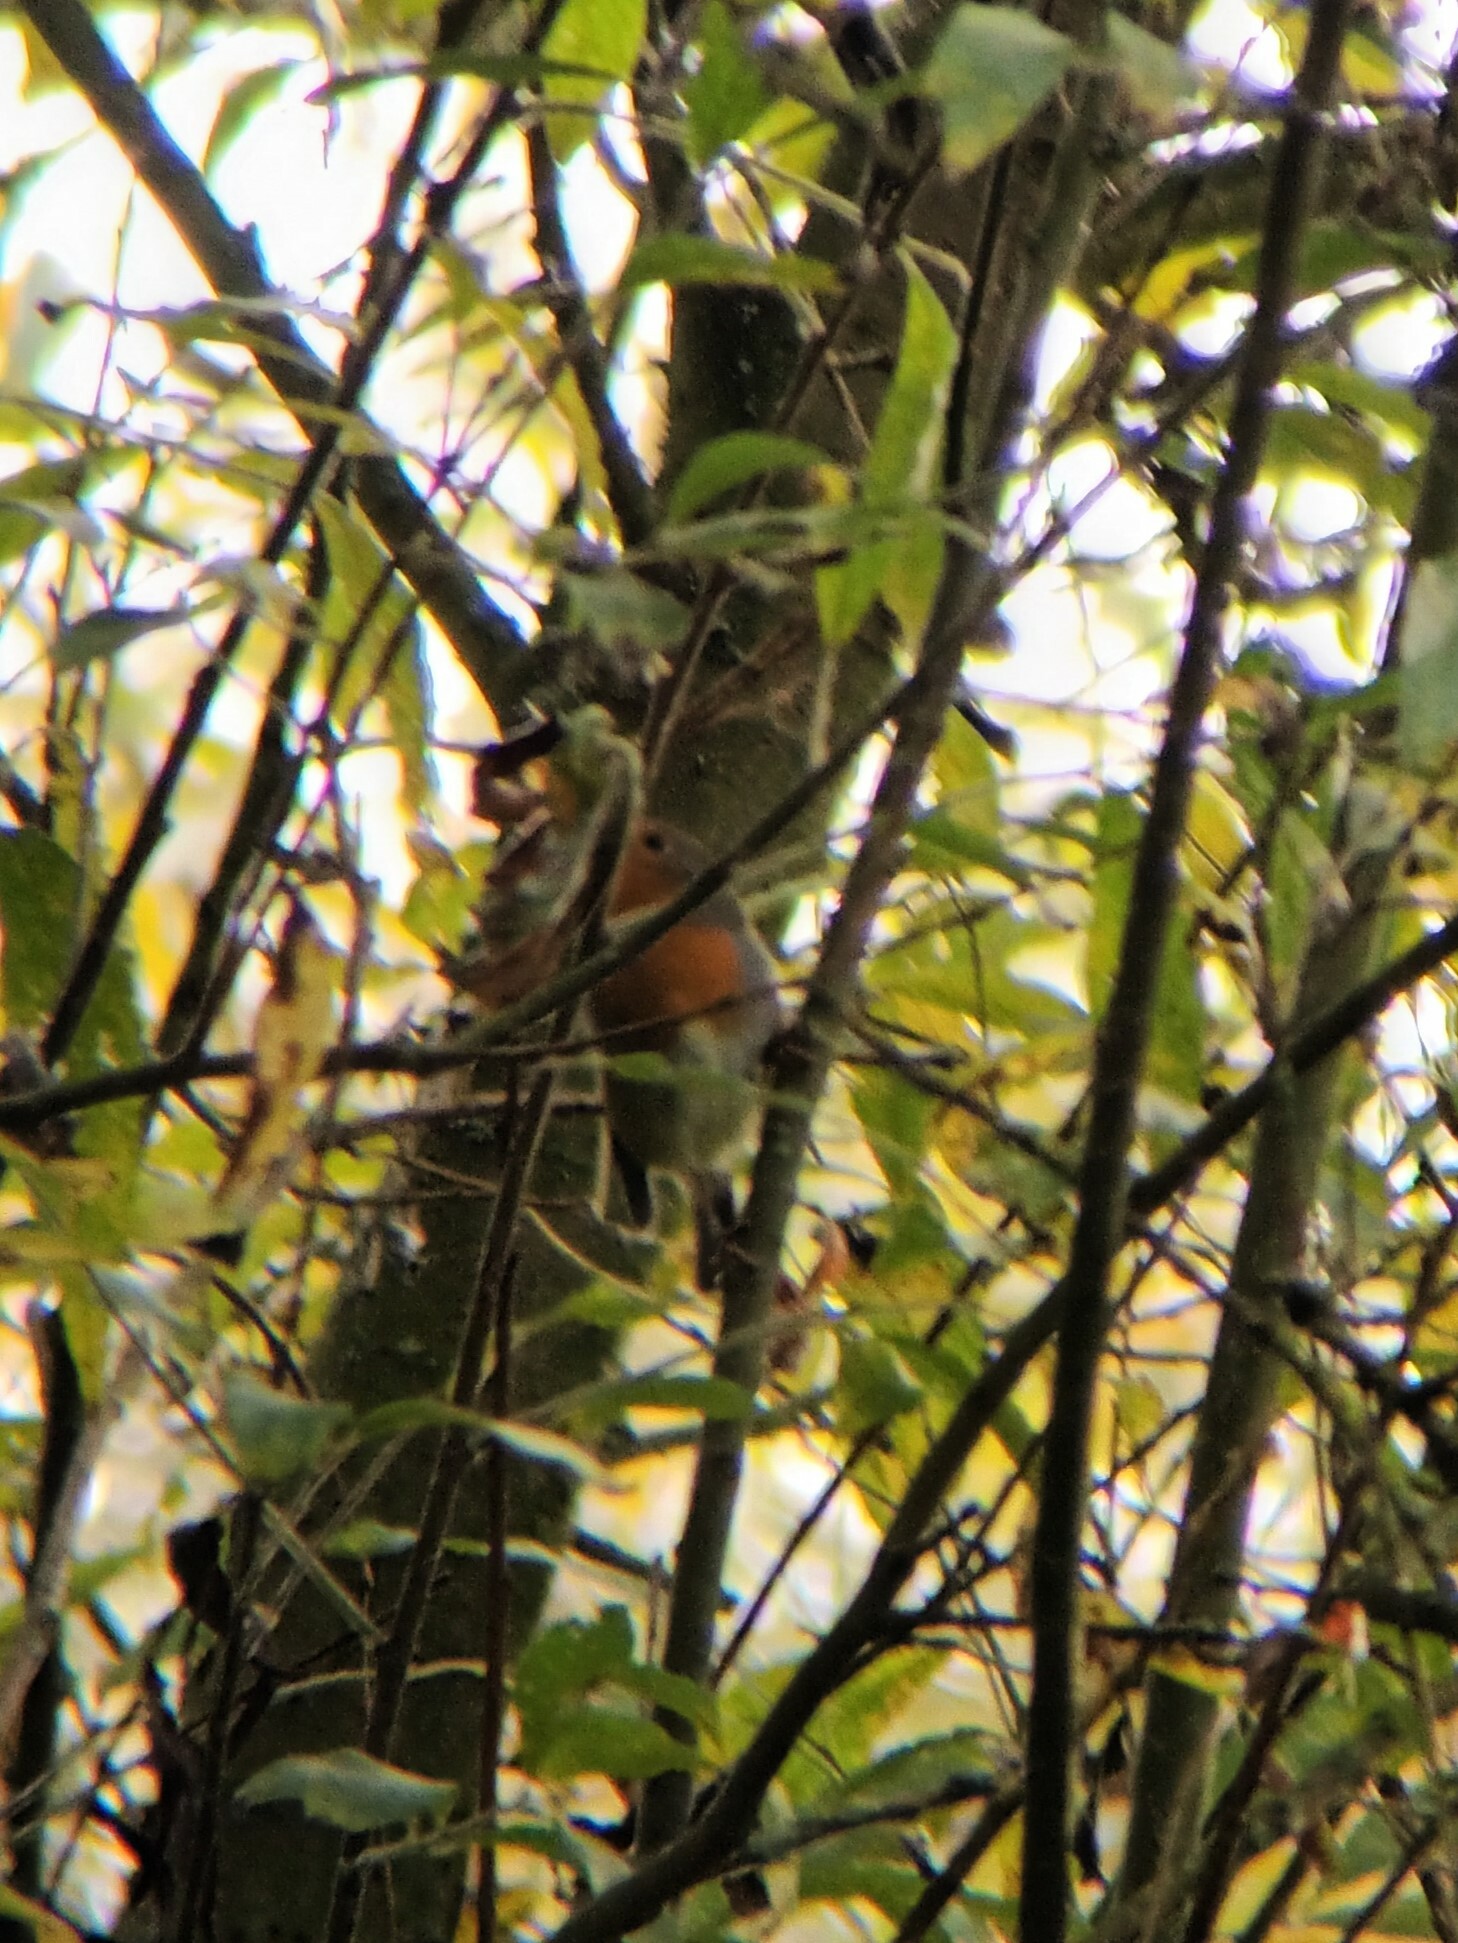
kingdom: Animalia
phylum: Chordata
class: Aves
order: Passeriformes
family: Muscicapidae
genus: Erithacus
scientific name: Erithacus rubecula
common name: European robin
